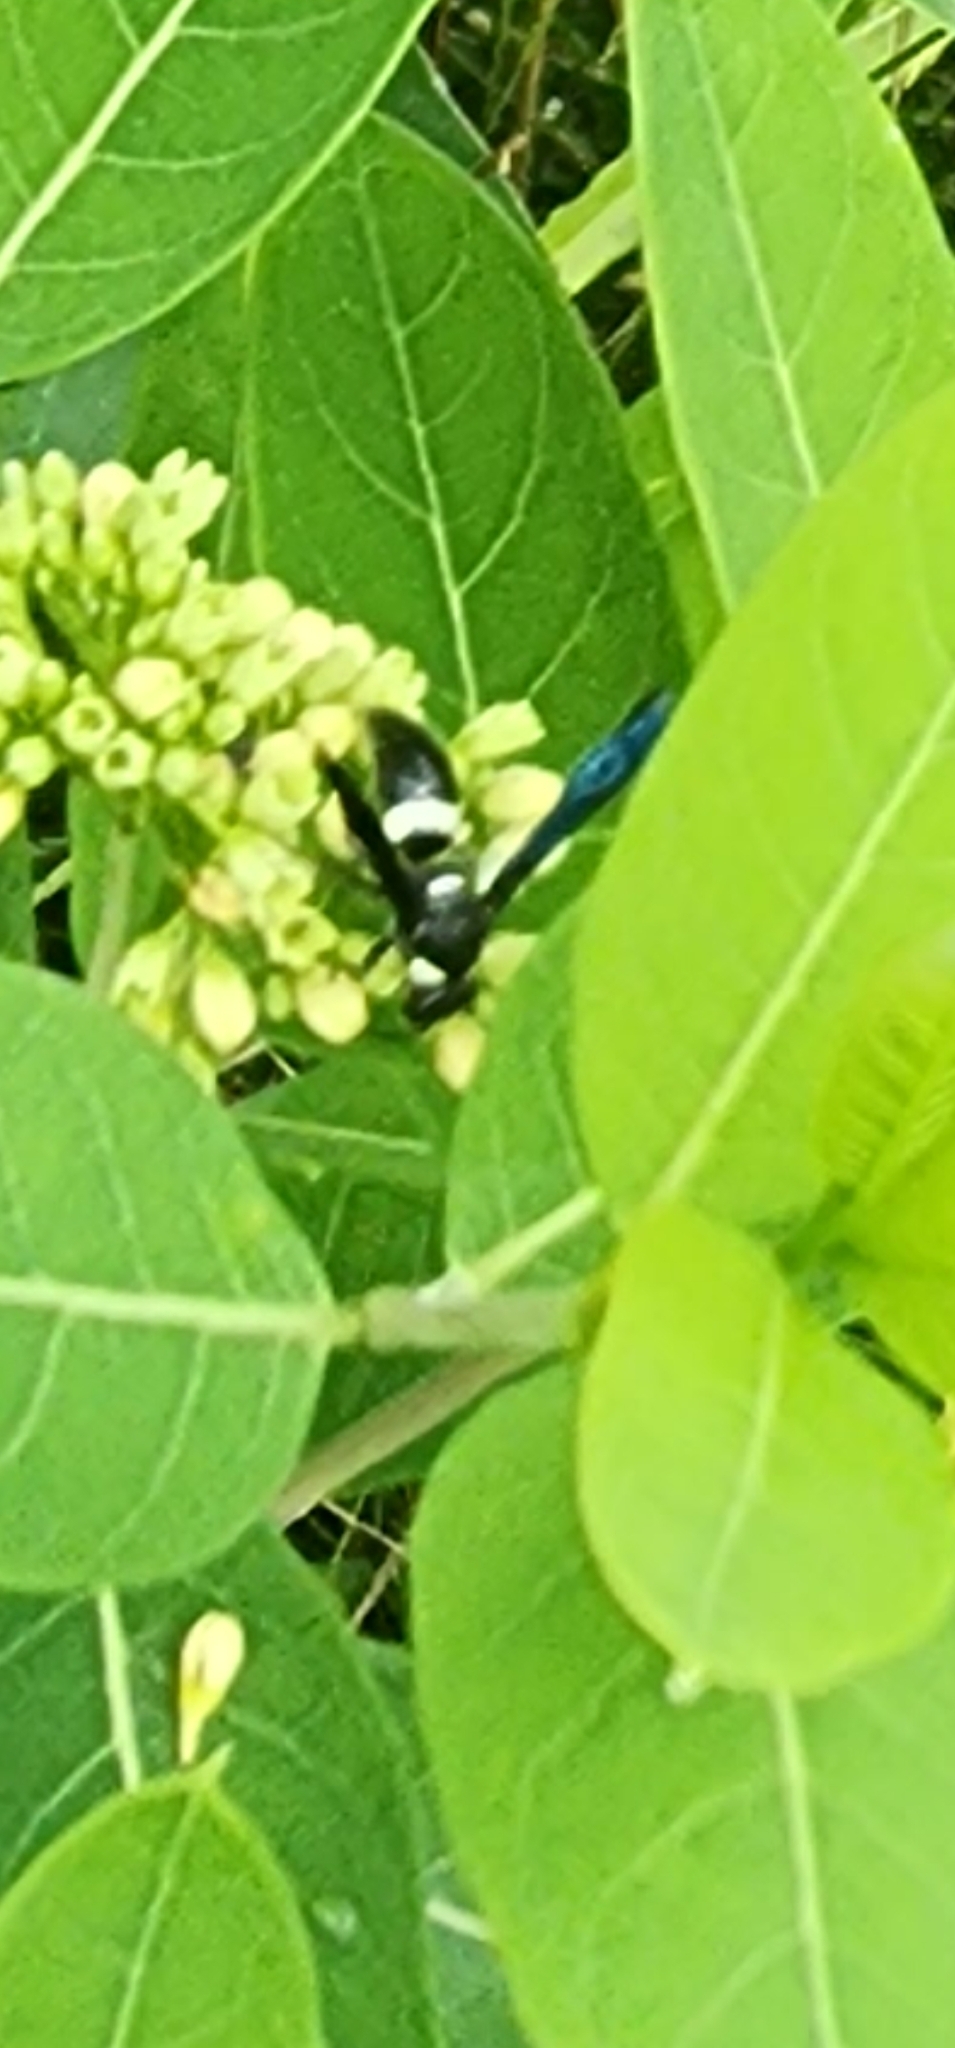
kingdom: Animalia
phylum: Arthropoda
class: Insecta
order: Hymenoptera
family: Eumenidae
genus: Monobia
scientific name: Monobia quadridens
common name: Four-toothed mason wasp
